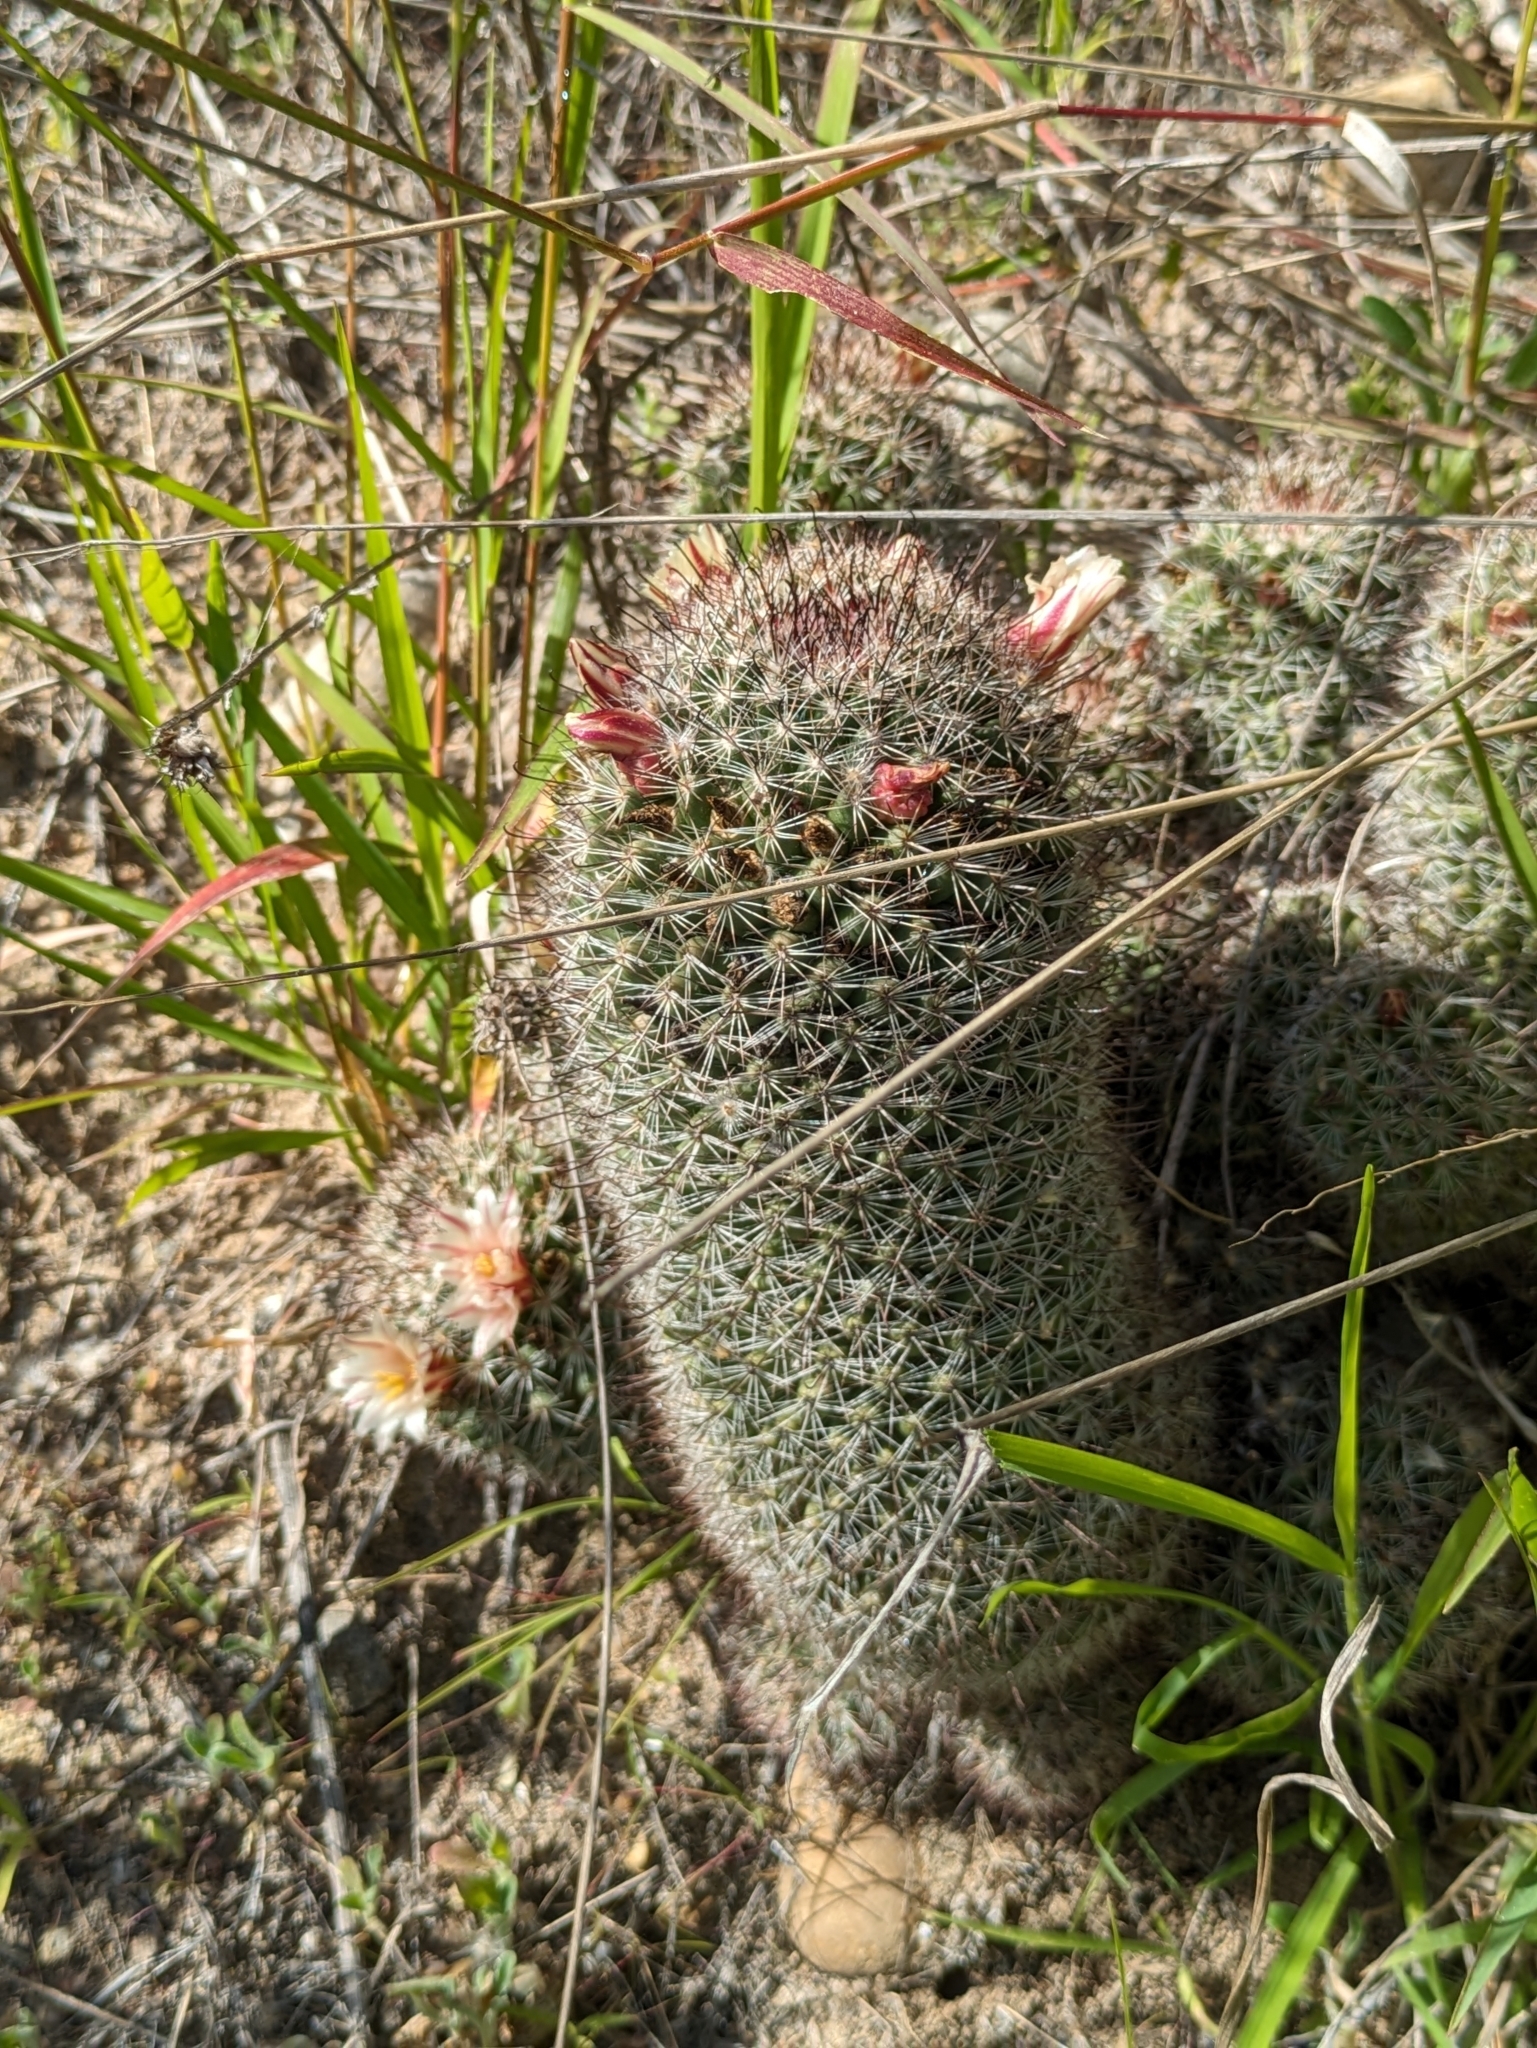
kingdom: Plantae
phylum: Tracheophyta
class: Magnoliopsida
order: Caryophyllales
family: Cactaceae
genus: Cochemiea
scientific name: Cochemiea dioica
